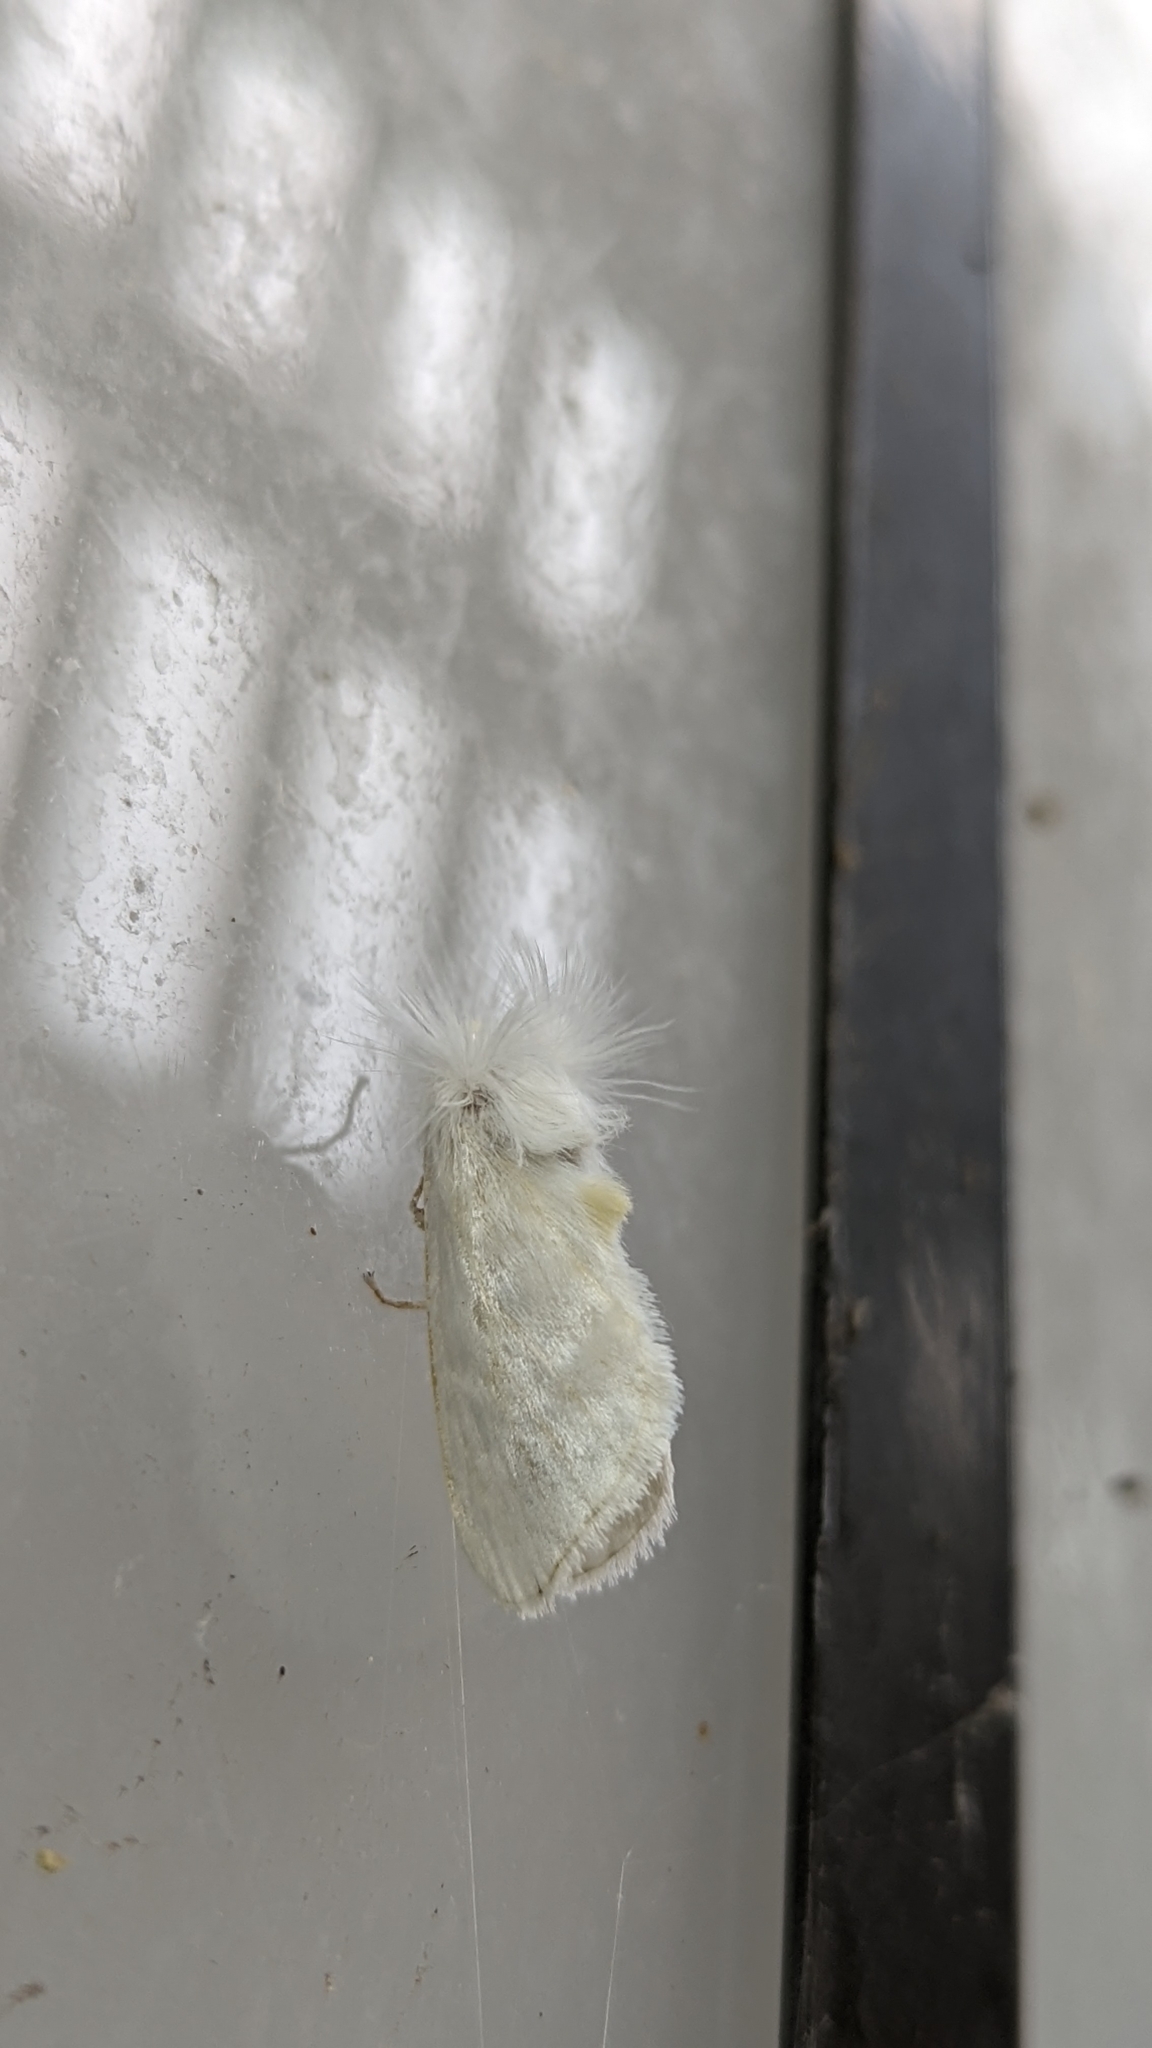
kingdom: Animalia
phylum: Arthropoda
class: Insecta
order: Lepidoptera
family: Megalopygidae
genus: Norape
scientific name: Norape cretata
